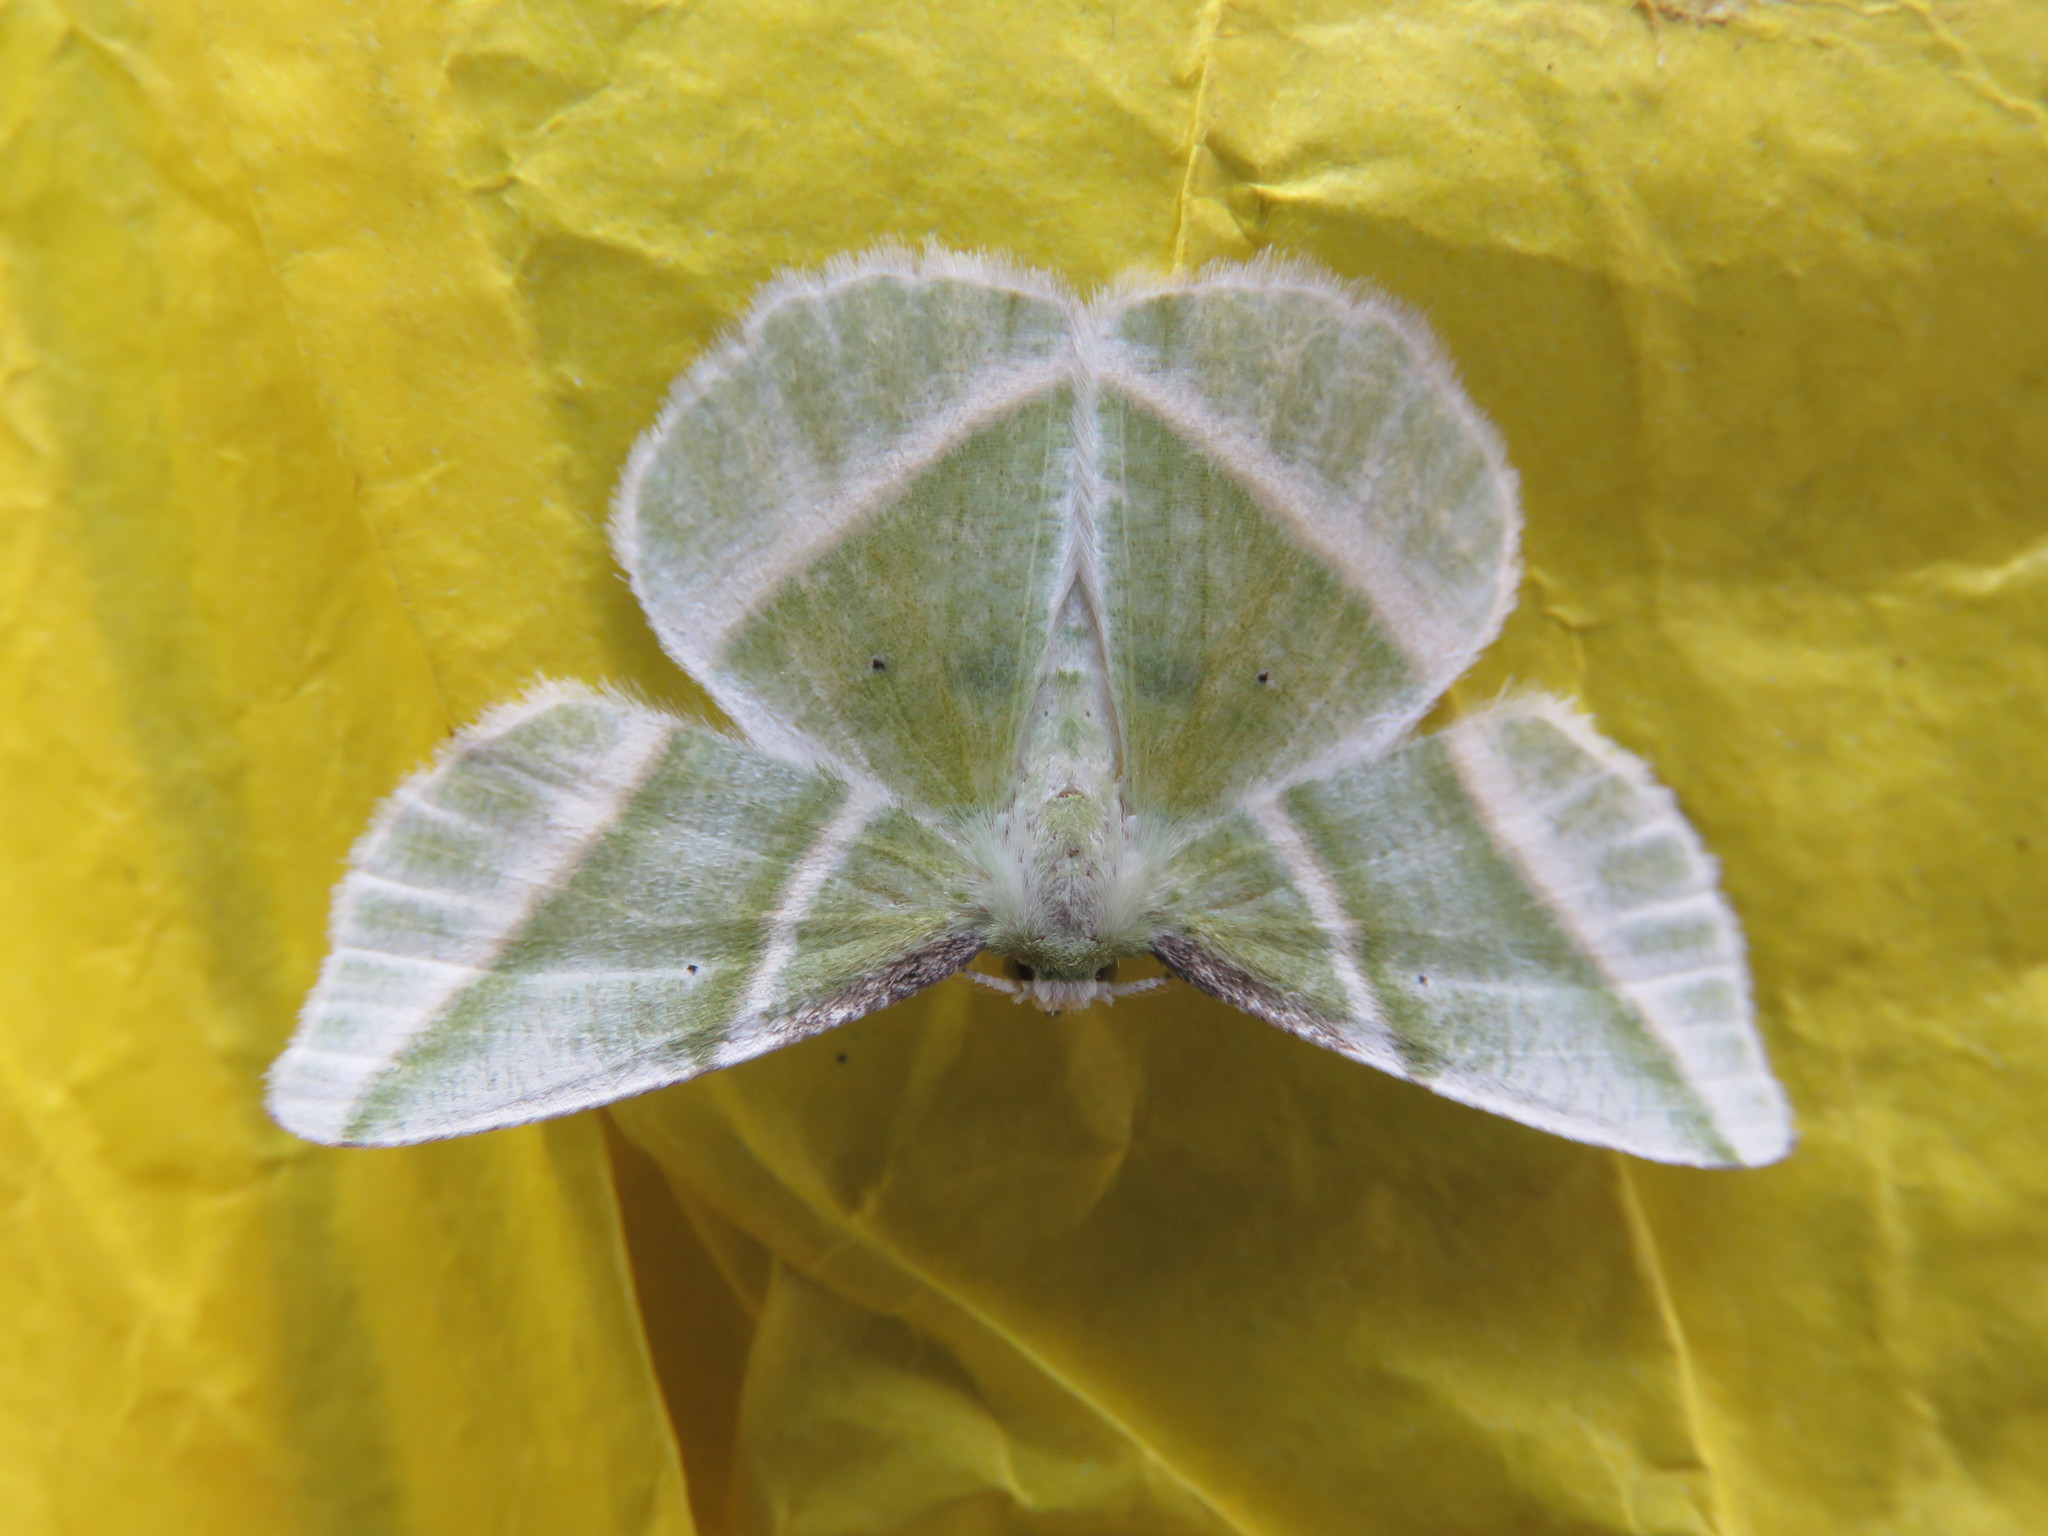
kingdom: Animalia
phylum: Arthropoda
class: Insecta
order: Lepidoptera
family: Geometridae
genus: Dichorda
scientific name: Dichorda iridaria
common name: Showy emerald
